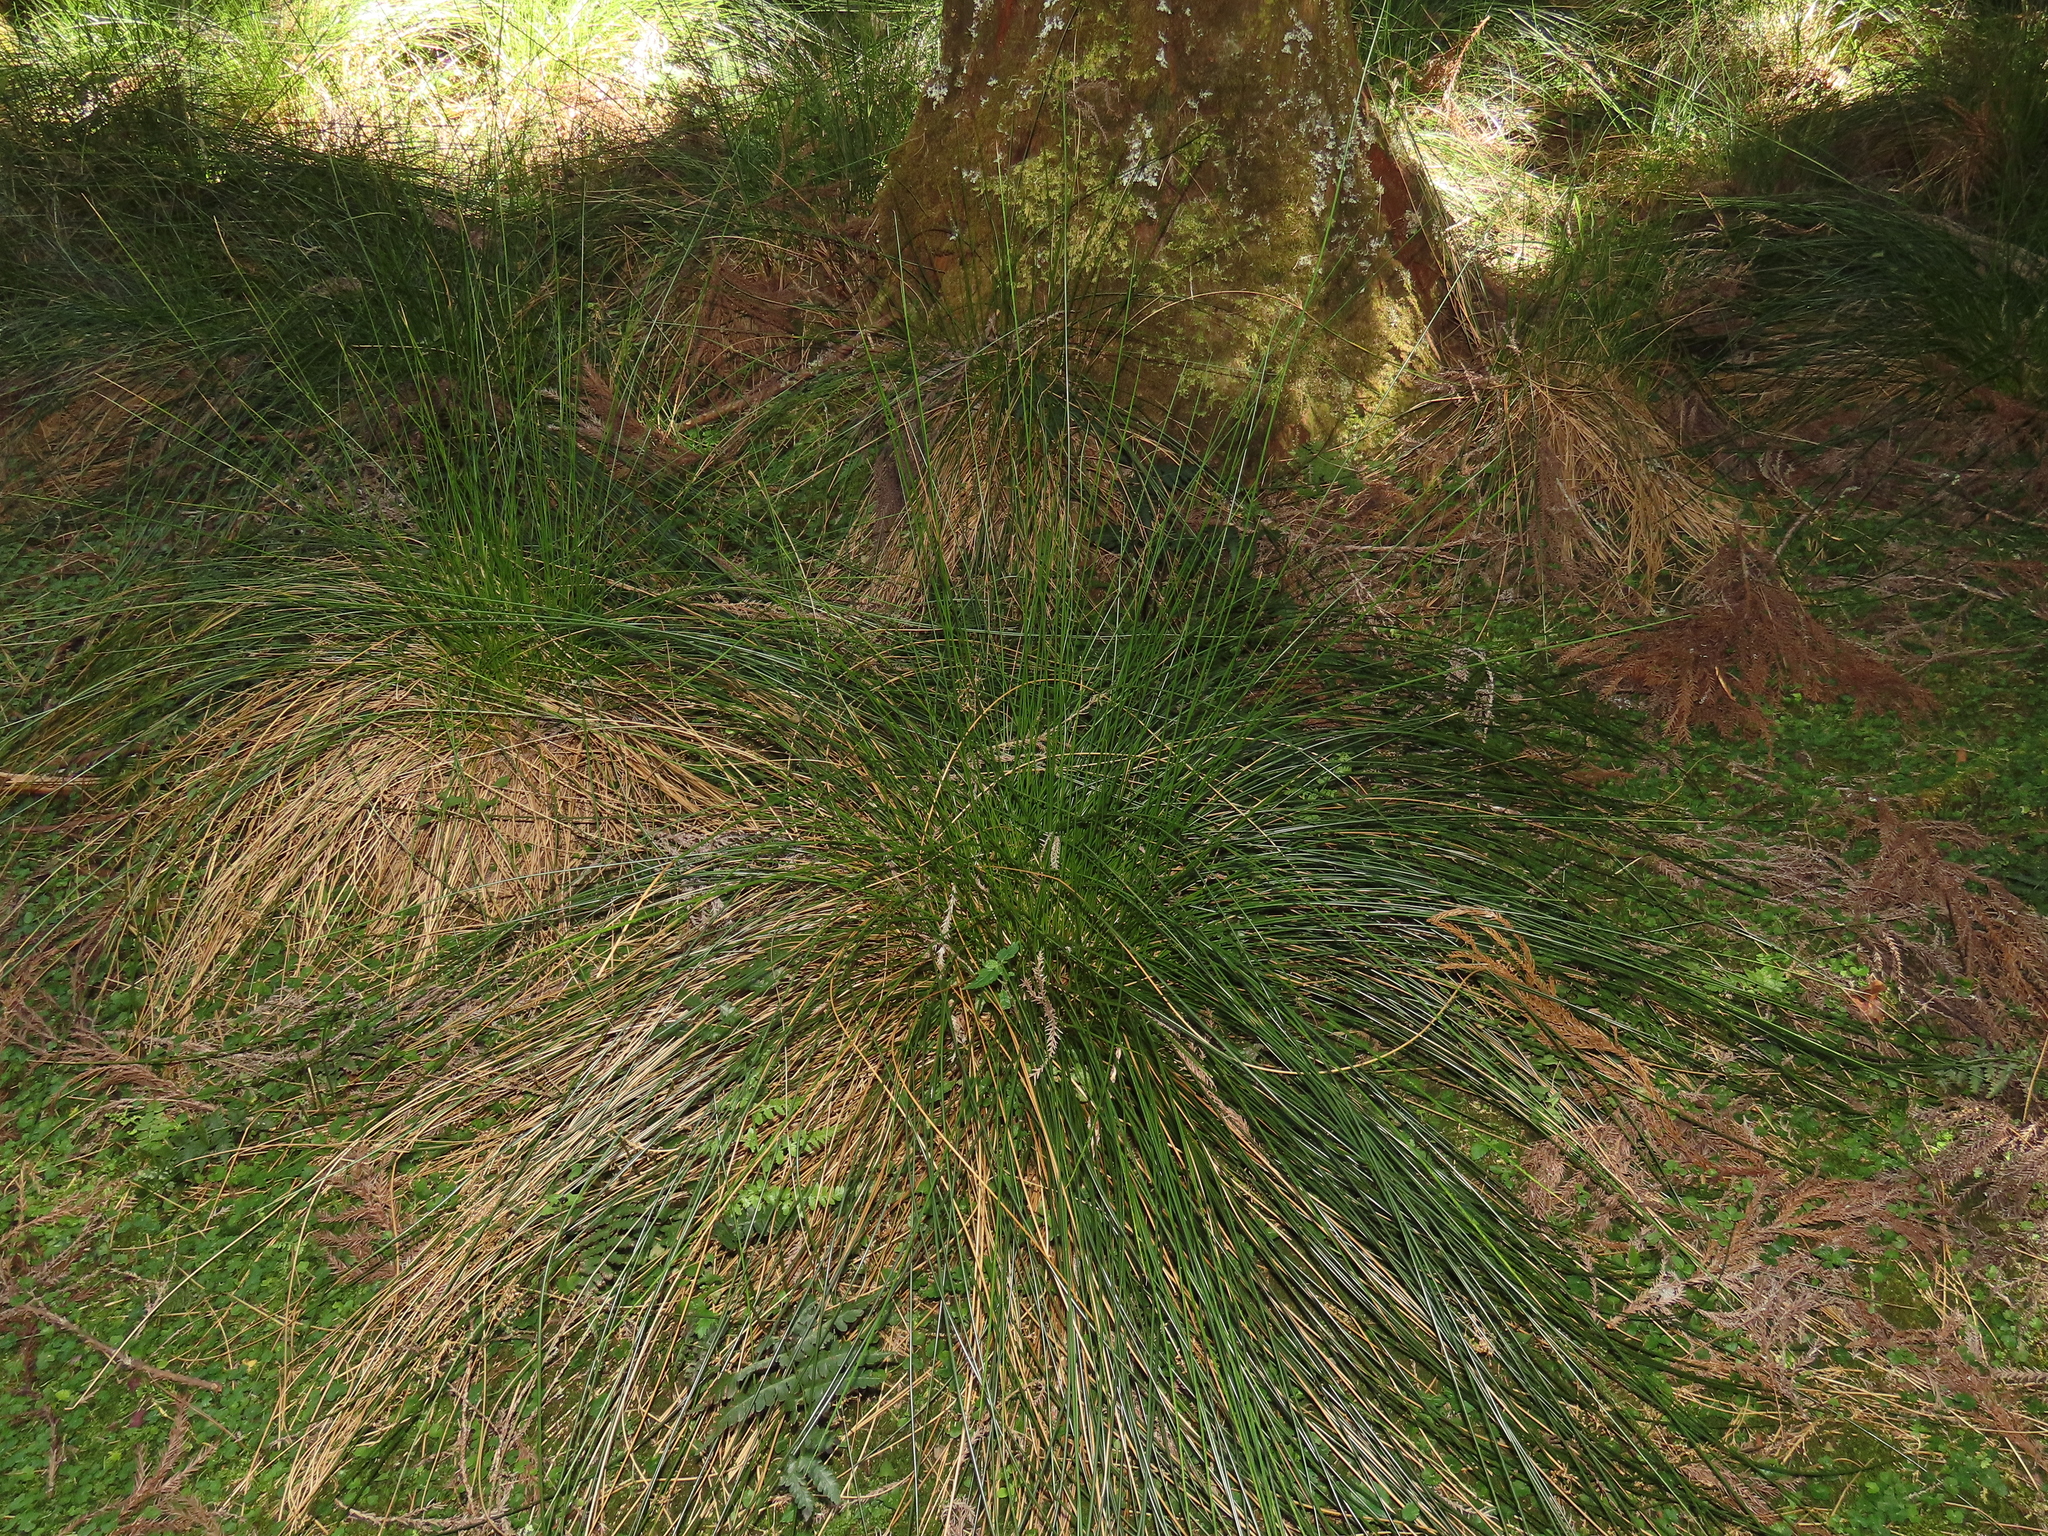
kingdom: Plantae
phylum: Tracheophyta
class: Liliopsida
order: Poales
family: Juncaceae
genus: Juncus
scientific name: Juncus decipiens
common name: Lamp rush
